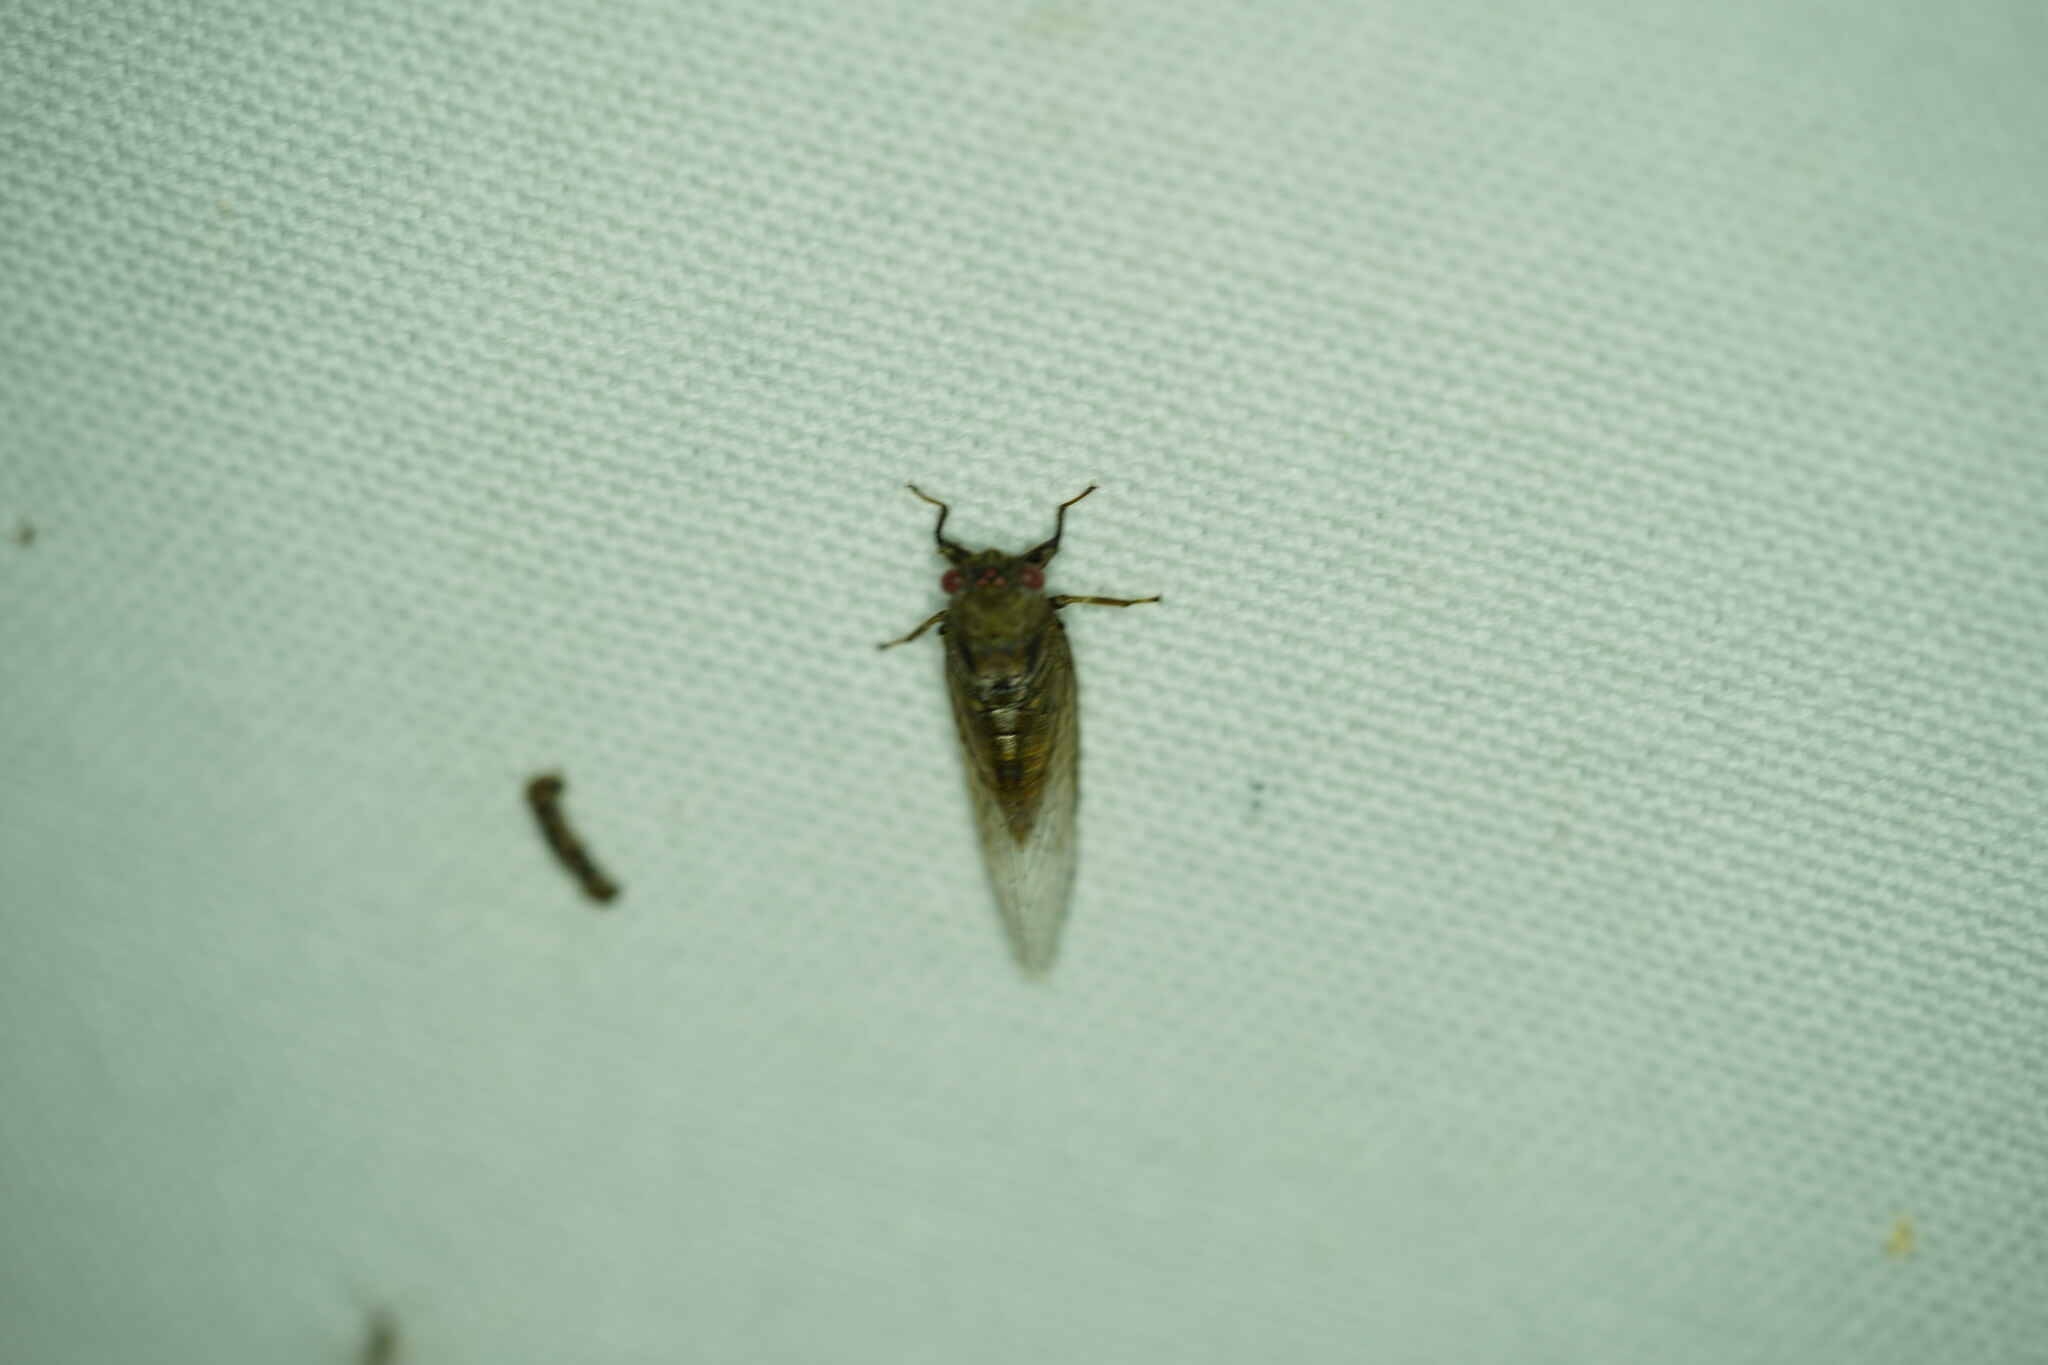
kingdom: Animalia
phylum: Arthropoda
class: Insecta
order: Hemiptera
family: Cicadidae
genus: Cicadettana
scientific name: Cicadettana calliope
